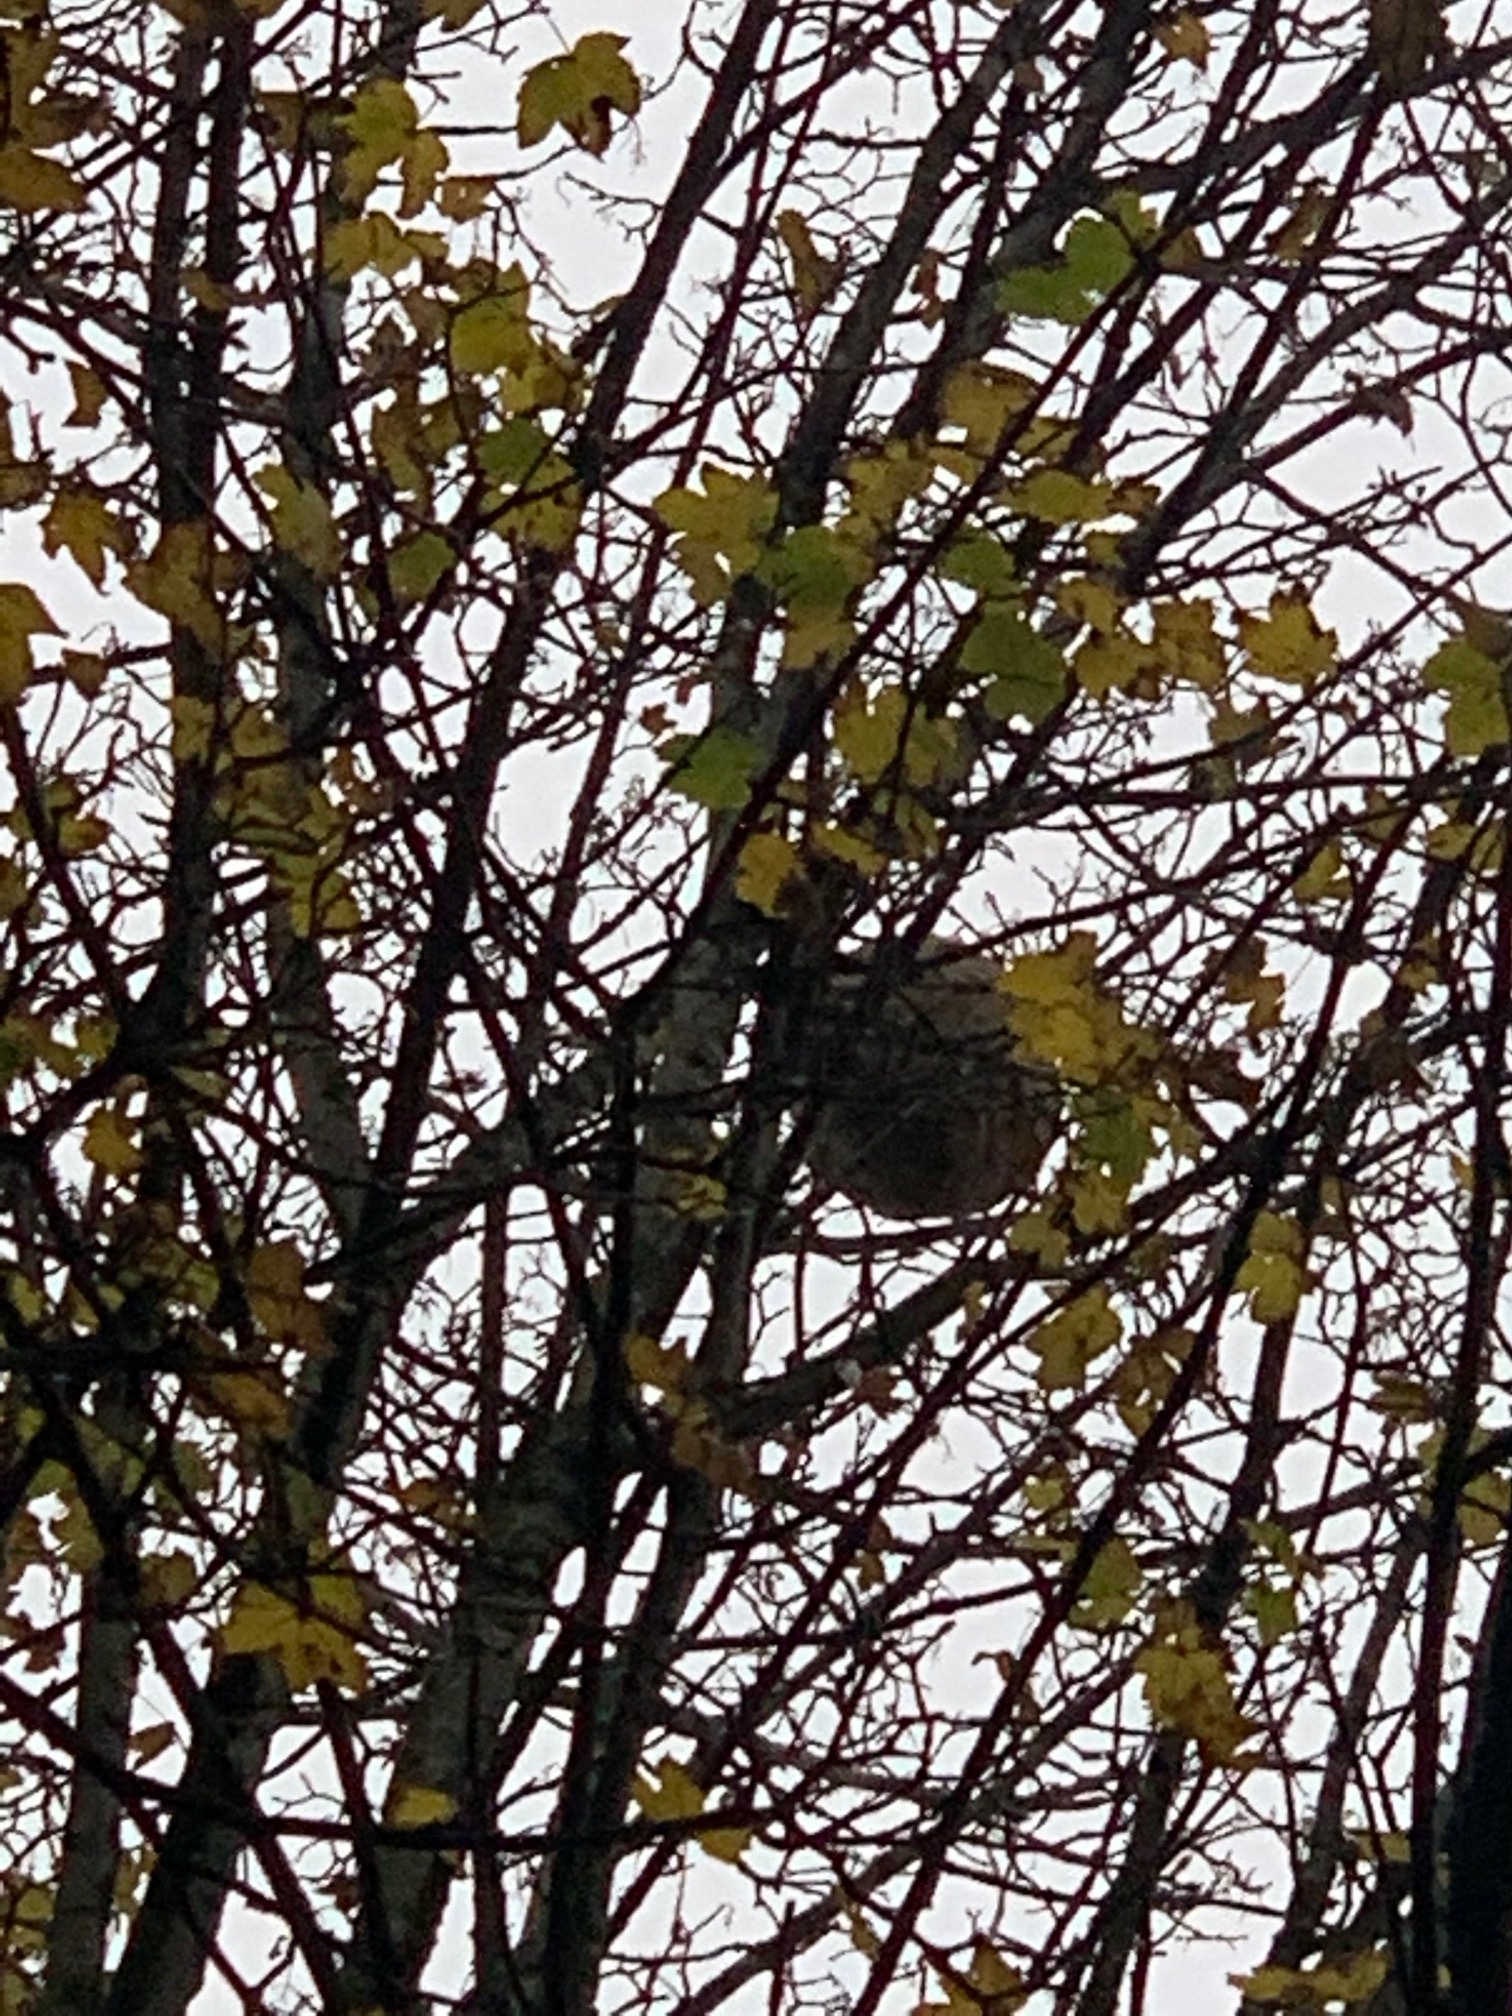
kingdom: Animalia
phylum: Arthropoda
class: Insecta
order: Hymenoptera
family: Vespidae
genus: Vespa
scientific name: Vespa velutina
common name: Asian hornet
